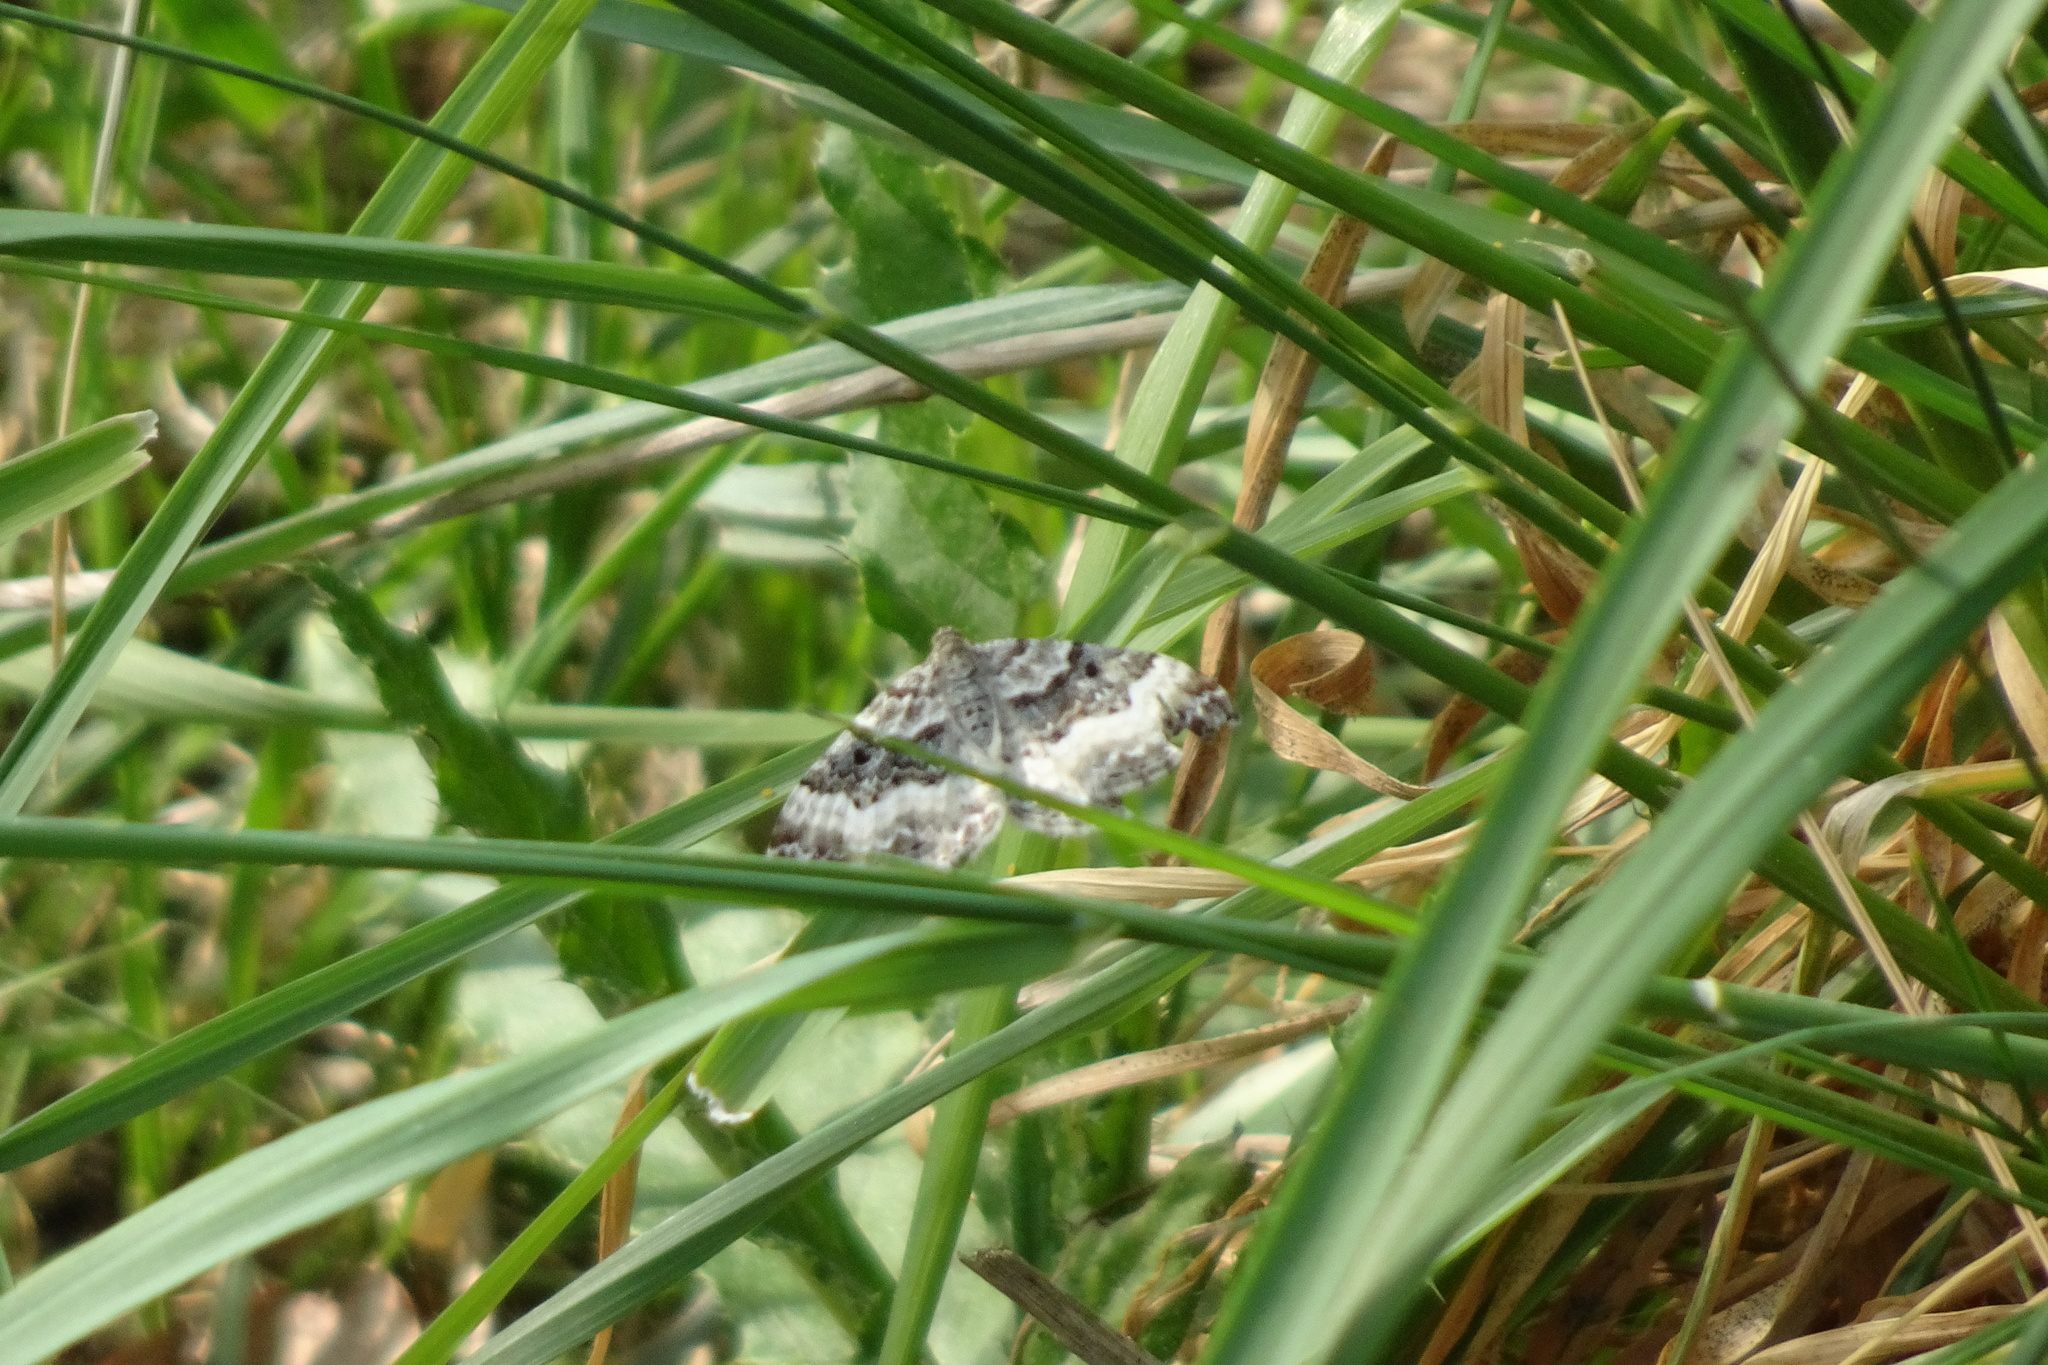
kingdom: Animalia
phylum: Arthropoda
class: Insecta
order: Lepidoptera
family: Geometridae
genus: Epirrhoe
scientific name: Epirrhoe alternata
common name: Common carpet
